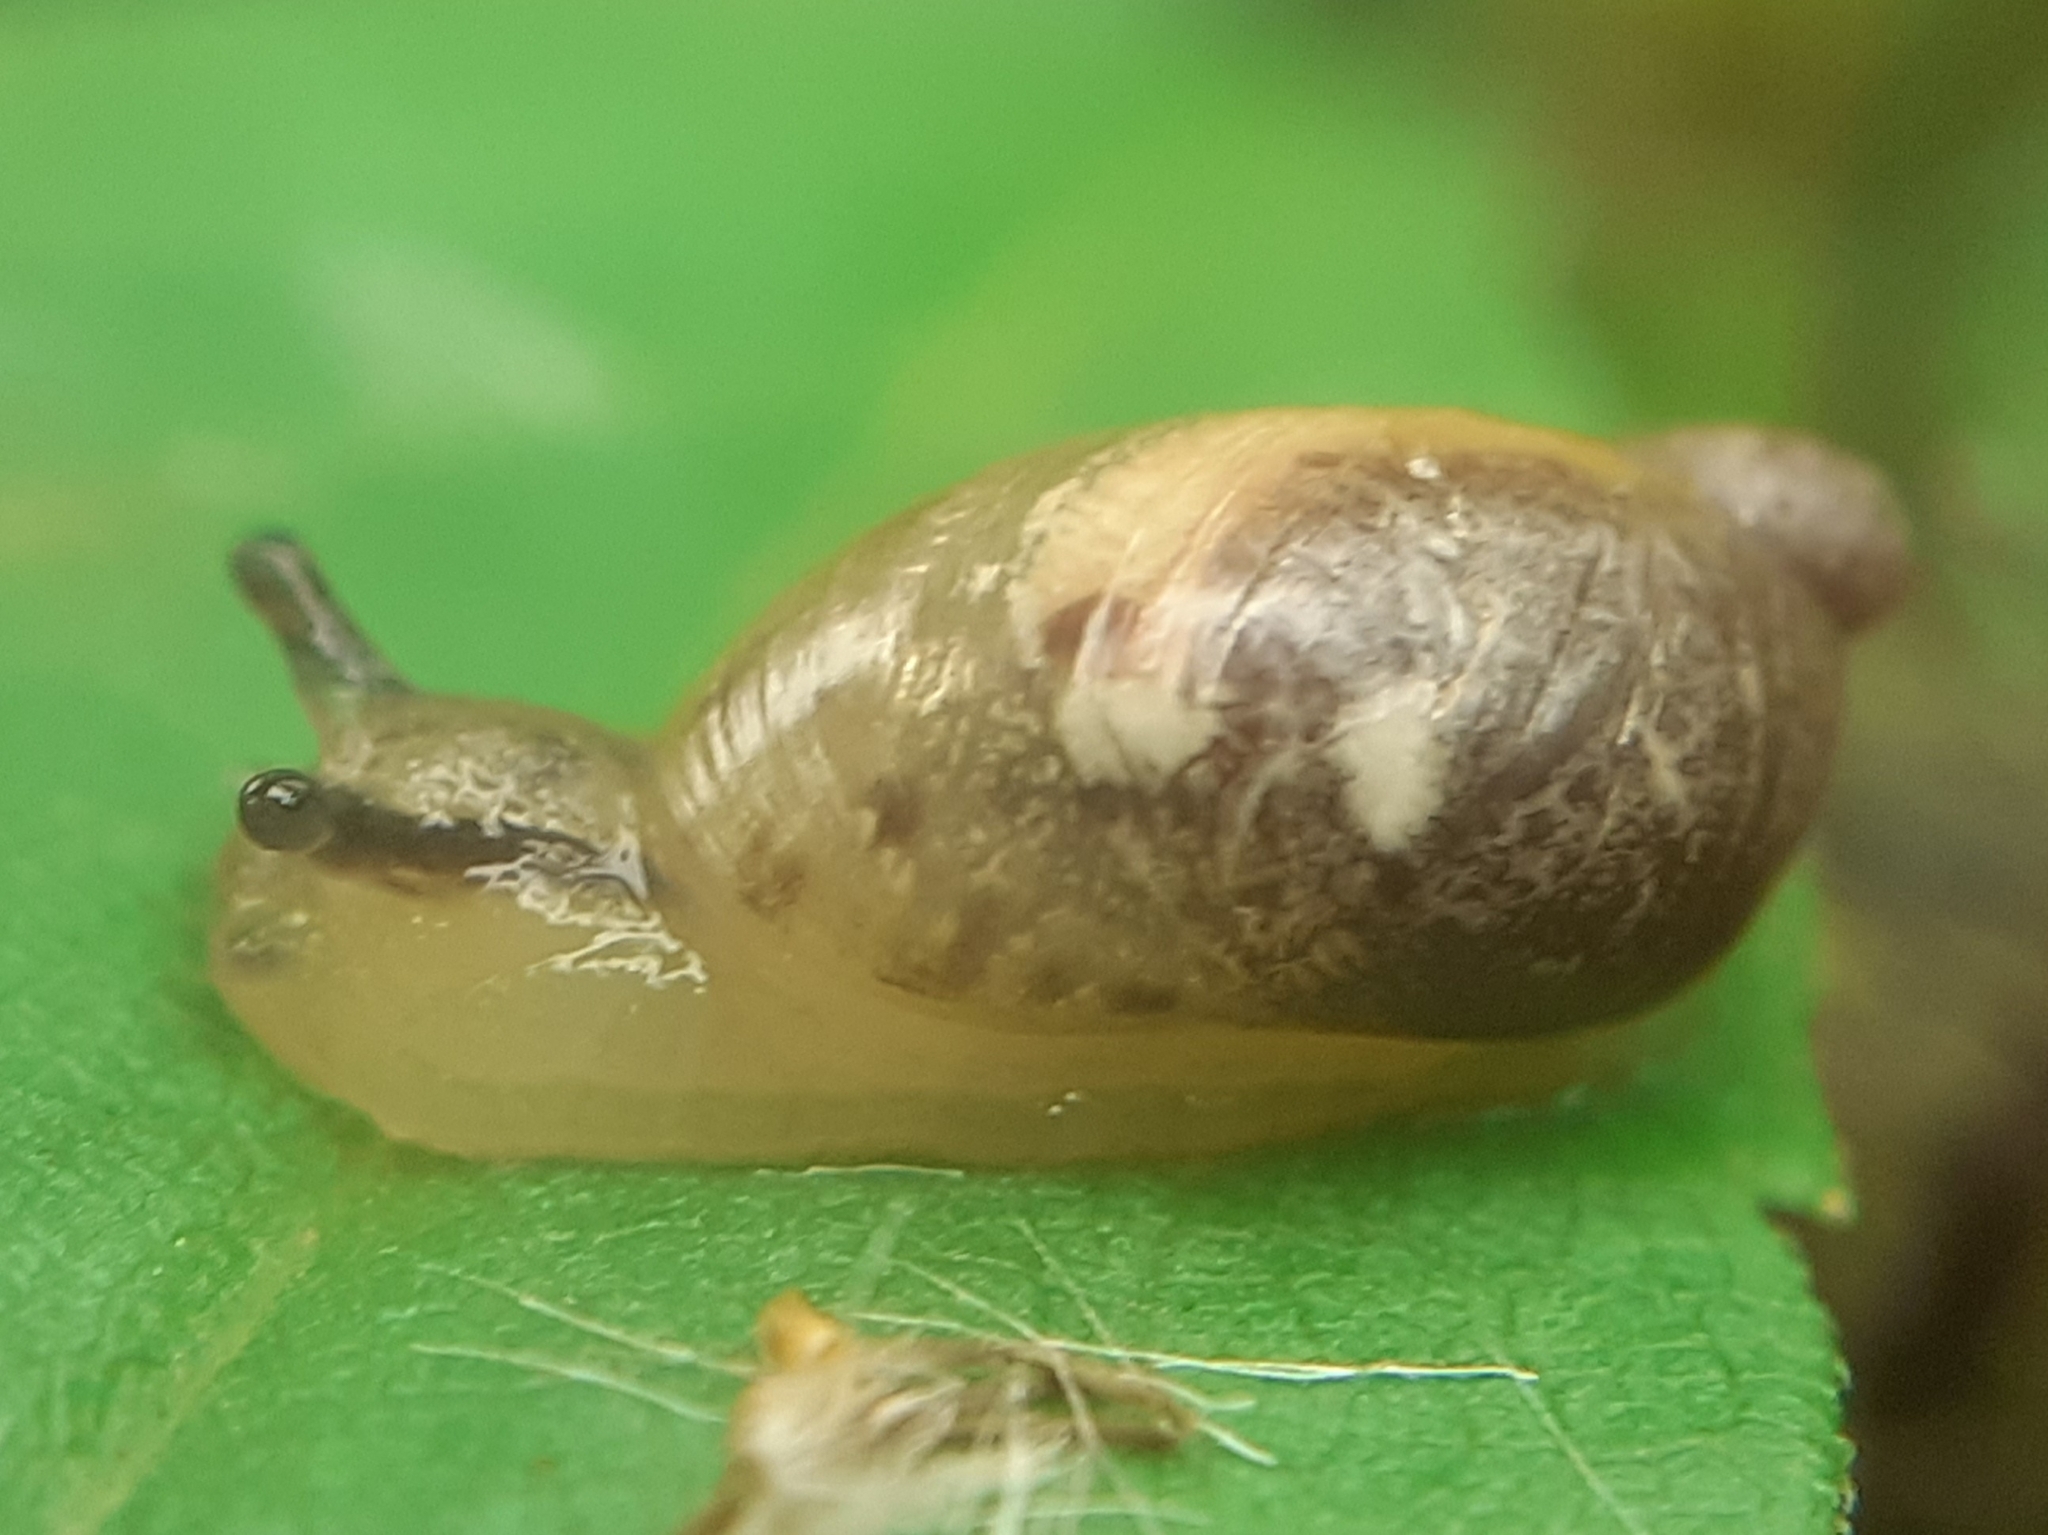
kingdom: Animalia
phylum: Mollusca
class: Gastropoda
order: Stylommatophora
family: Succineidae
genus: Succinea
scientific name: Succinea putris
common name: European ambersnail
